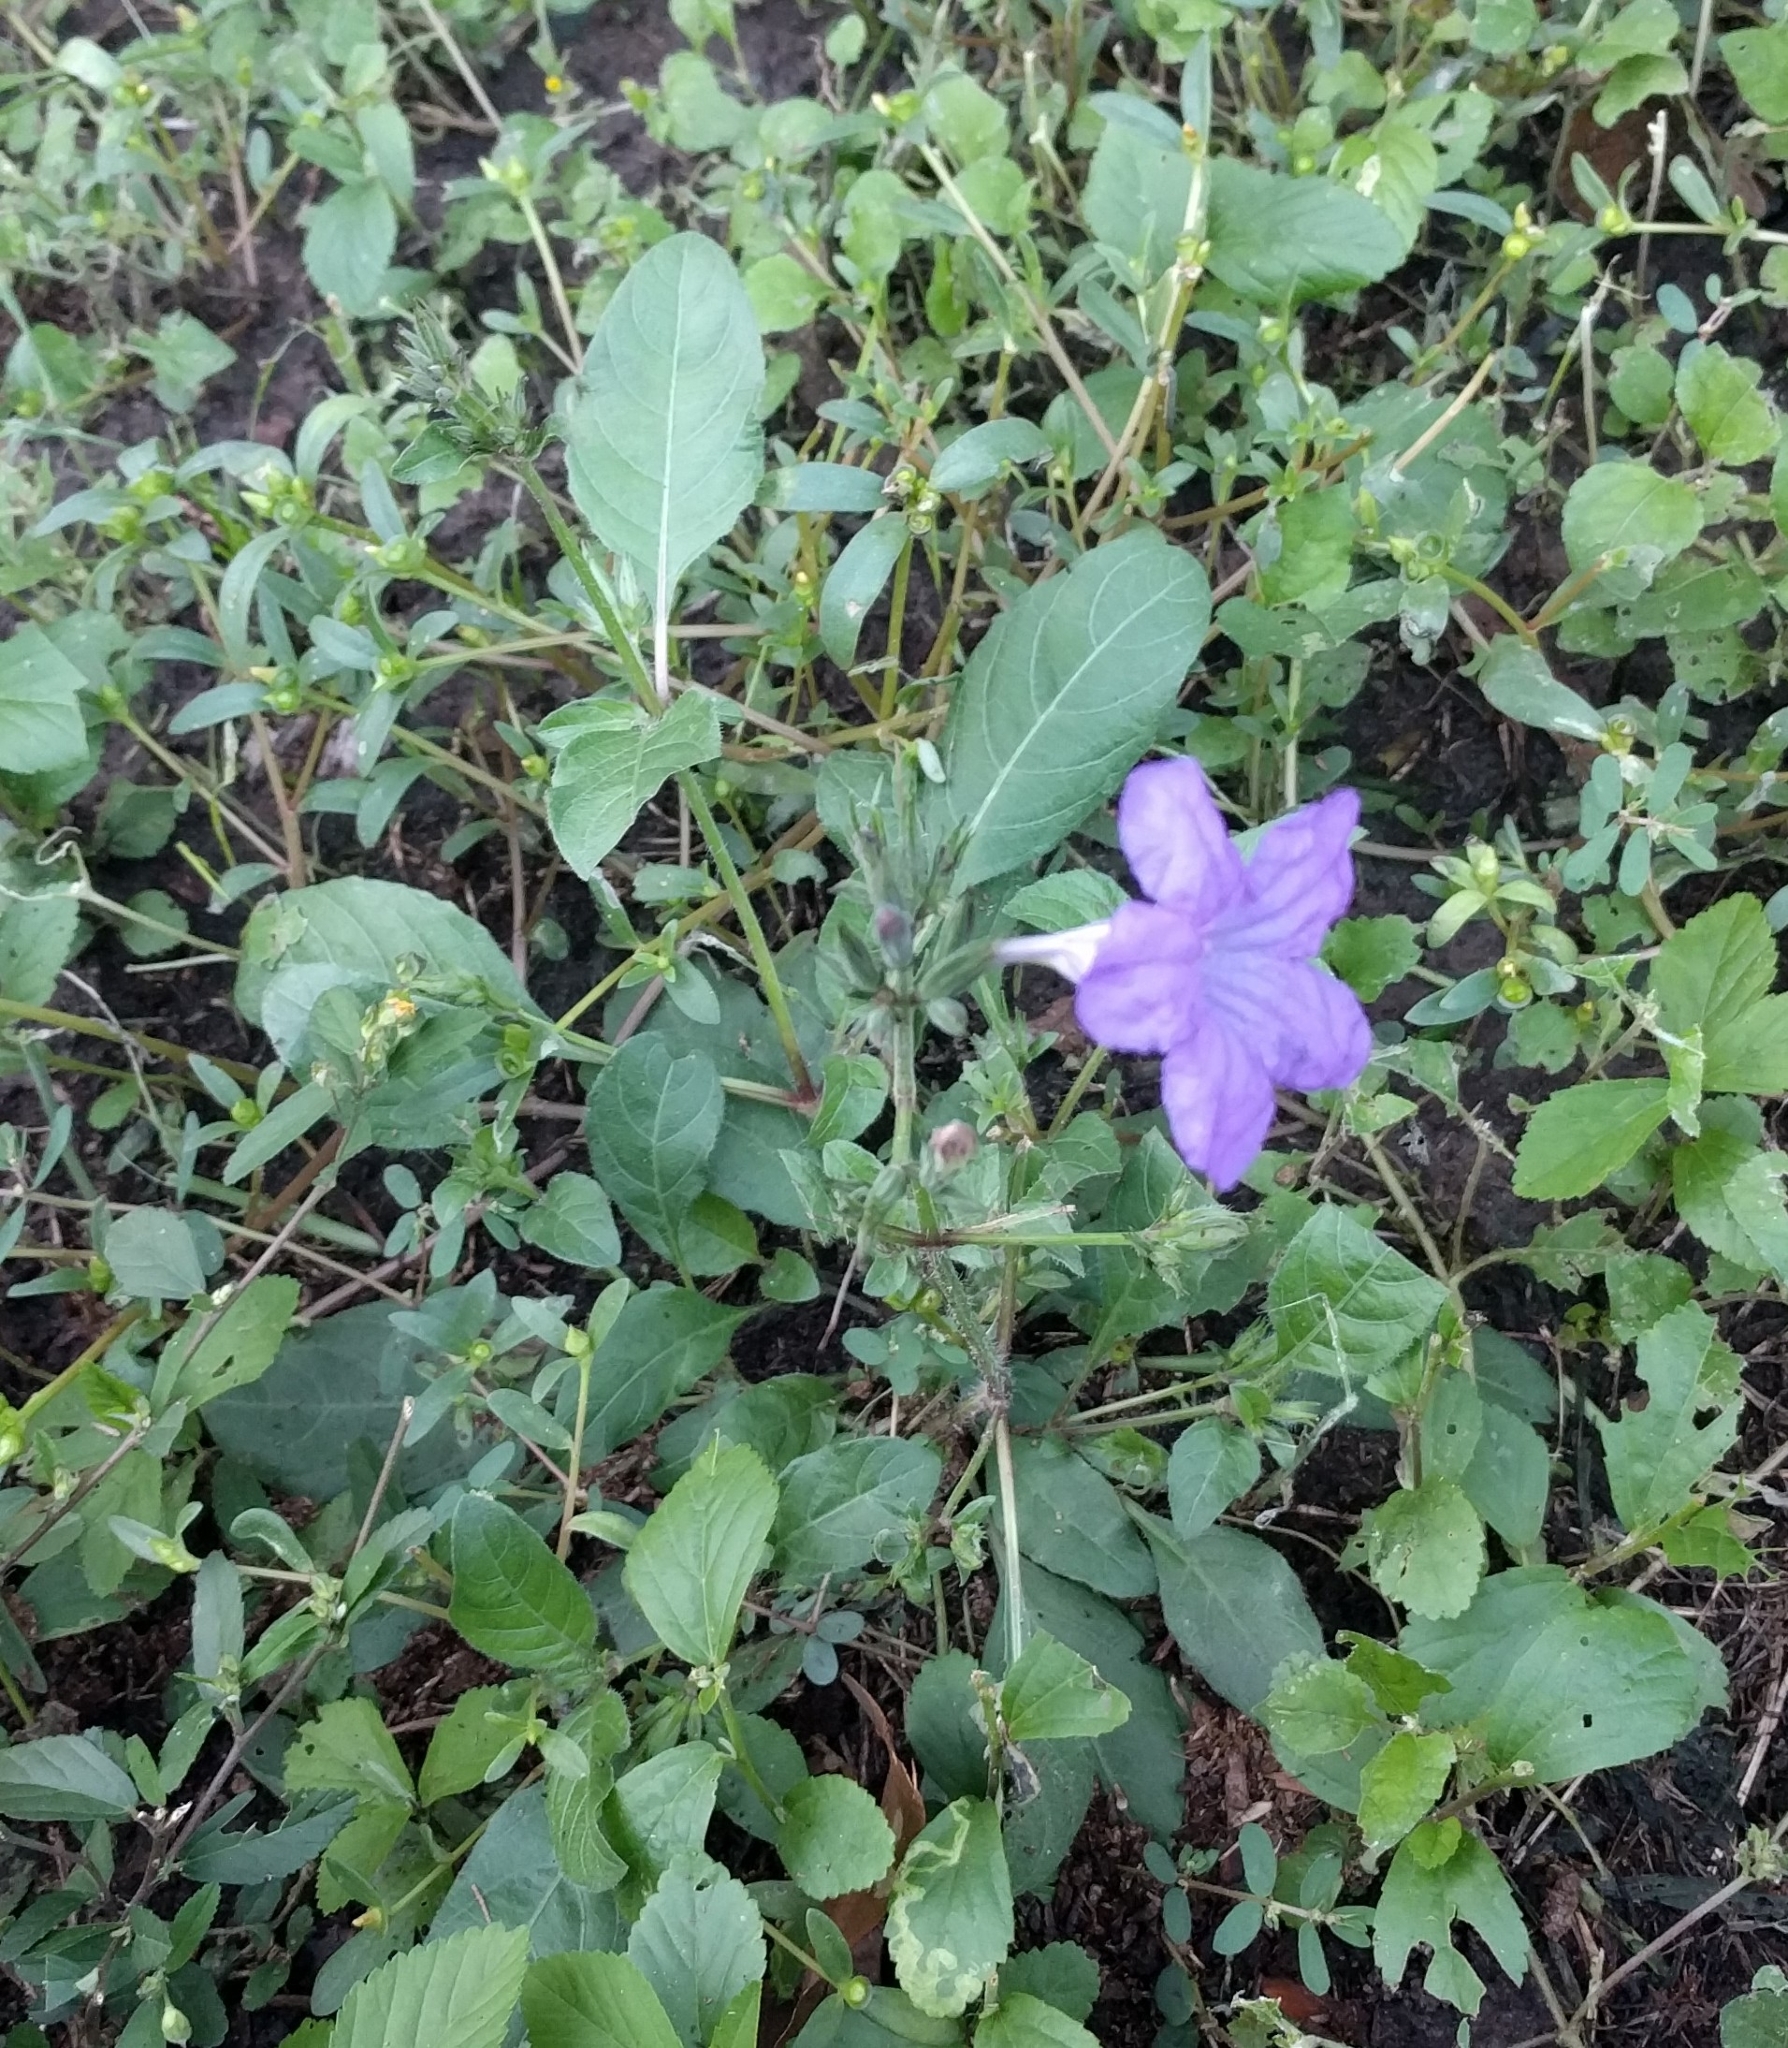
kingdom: Plantae
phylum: Tracheophyta
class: Magnoliopsida
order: Lamiales
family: Acanthaceae
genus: Ruellia
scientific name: Ruellia ciliatiflora
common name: Hairyflower wild petunia
